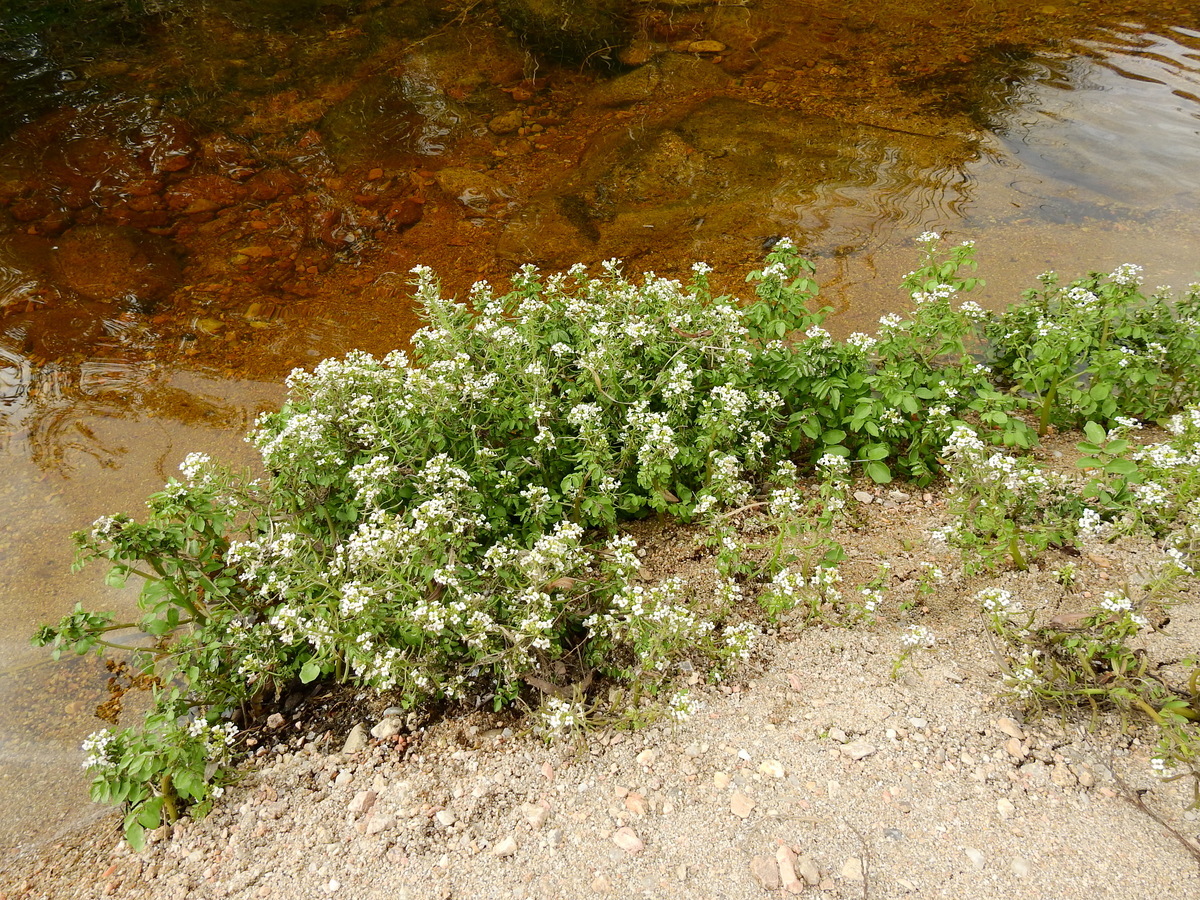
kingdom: Plantae
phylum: Tracheophyta
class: Magnoliopsida
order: Brassicales
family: Brassicaceae
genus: Nasturtium
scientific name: Nasturtium officinale
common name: Watercress
